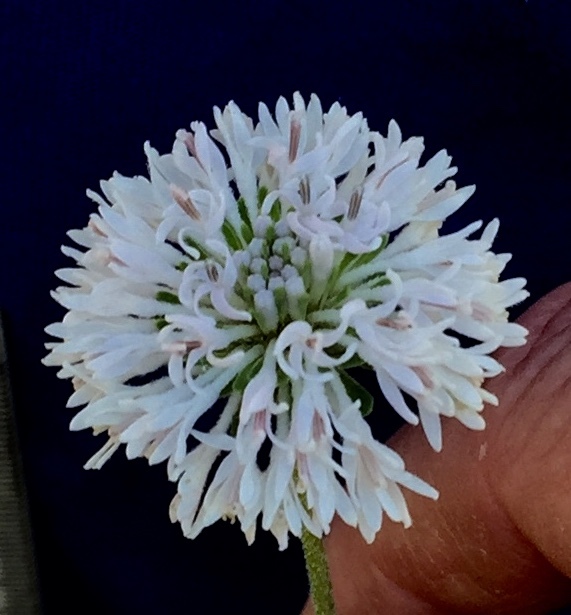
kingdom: Plantae
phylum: Tracheophyta
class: Magnoliopsida
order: Asterales
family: Asteraceae
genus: Marshallia
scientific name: Marshallia obovata
